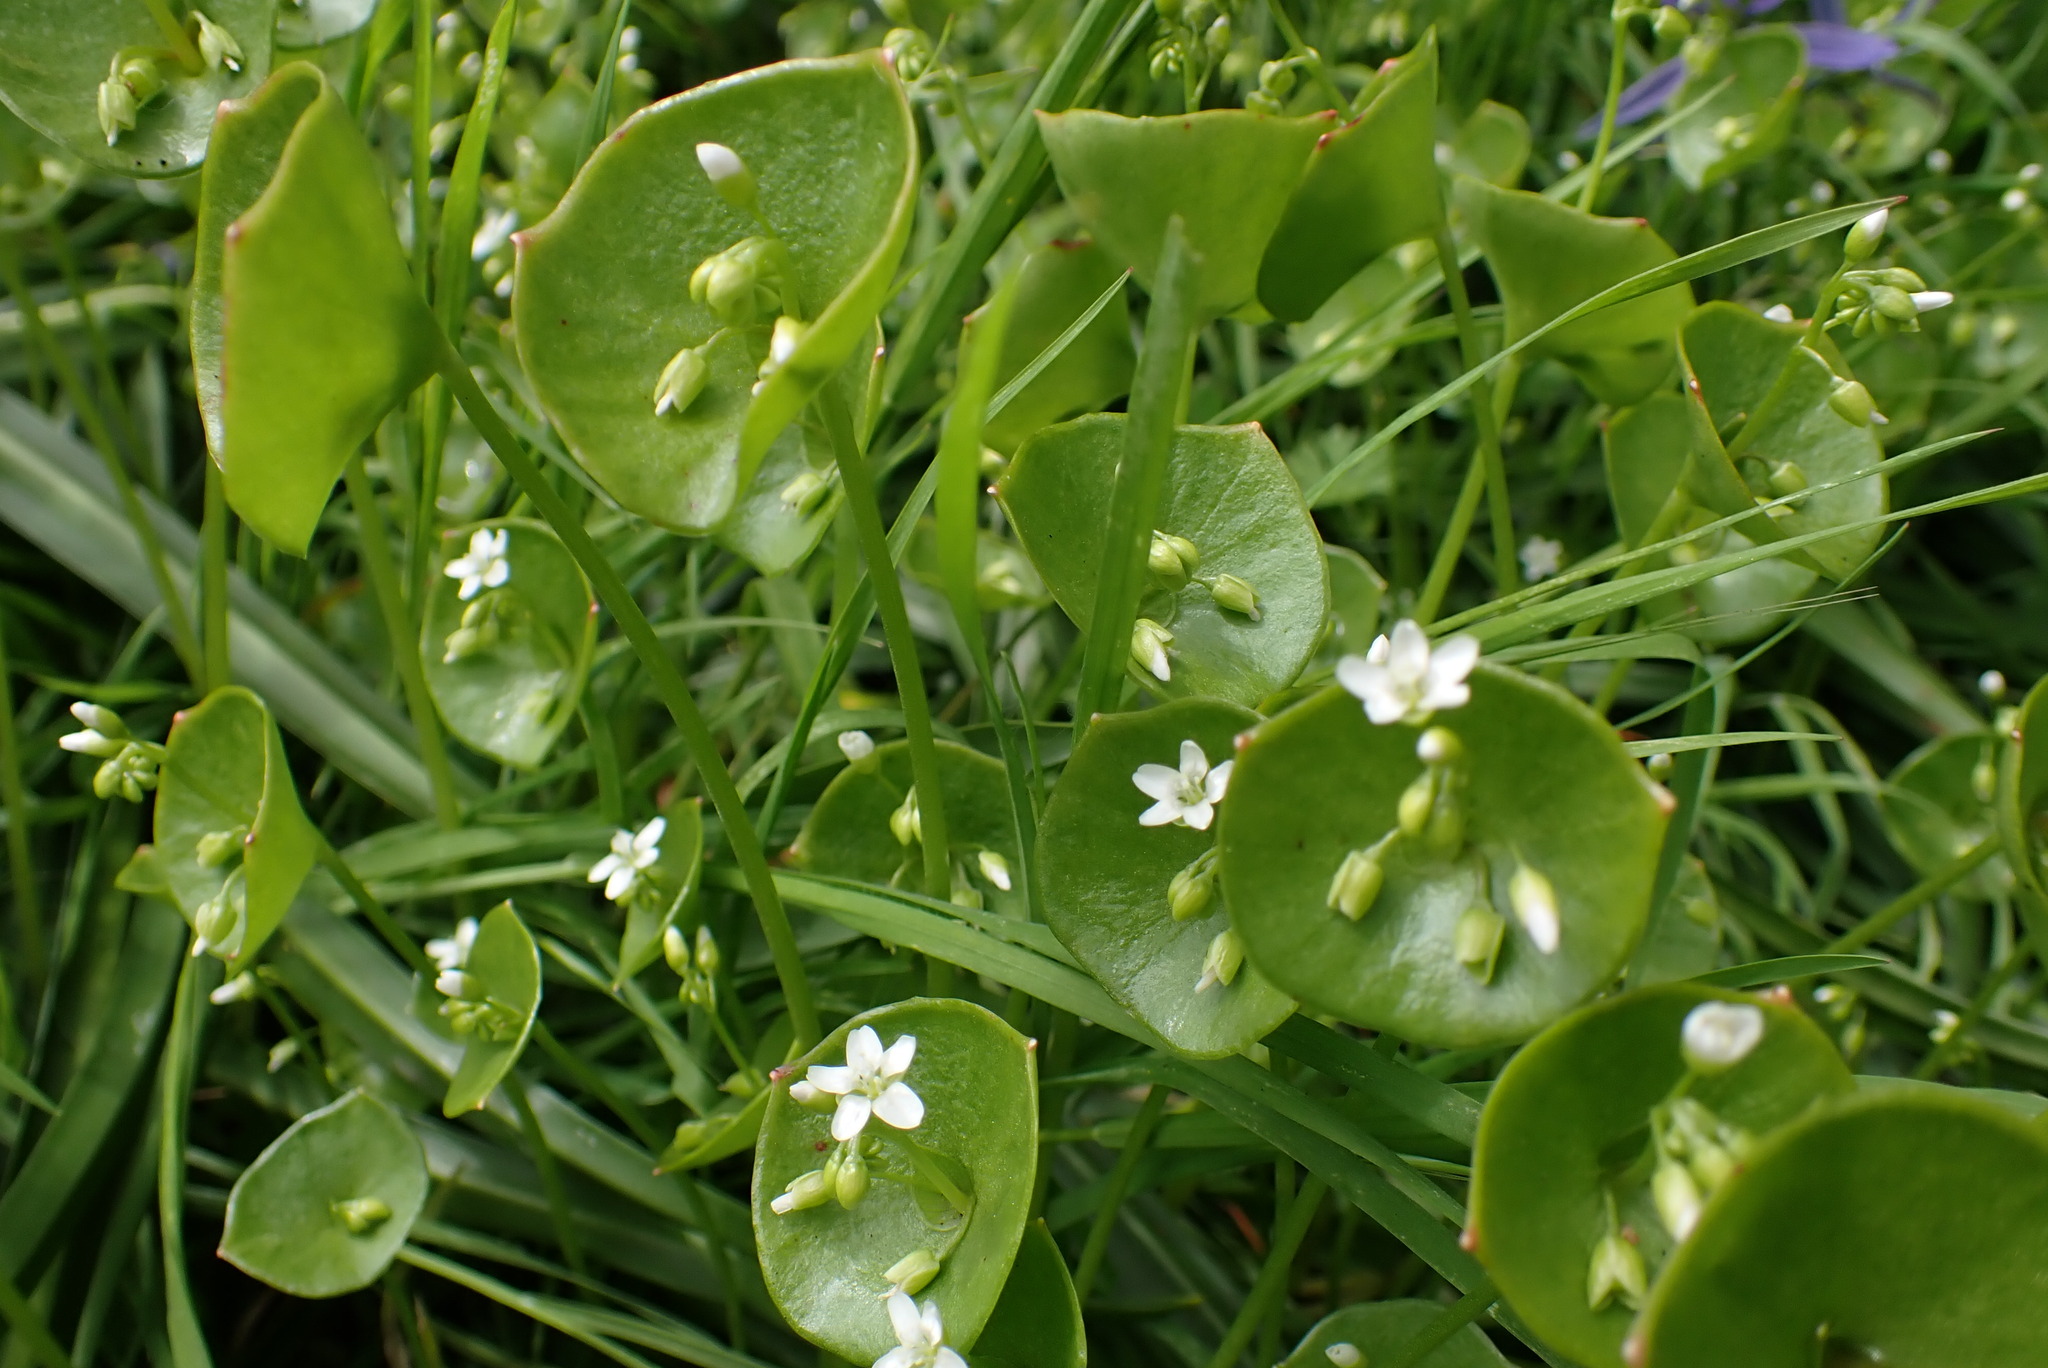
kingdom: Plantae
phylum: Tracheophyta
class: Magnoliopsida
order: Caryophyllales
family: Montiaceae
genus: Claytonia
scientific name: Claytonia perfoliata
